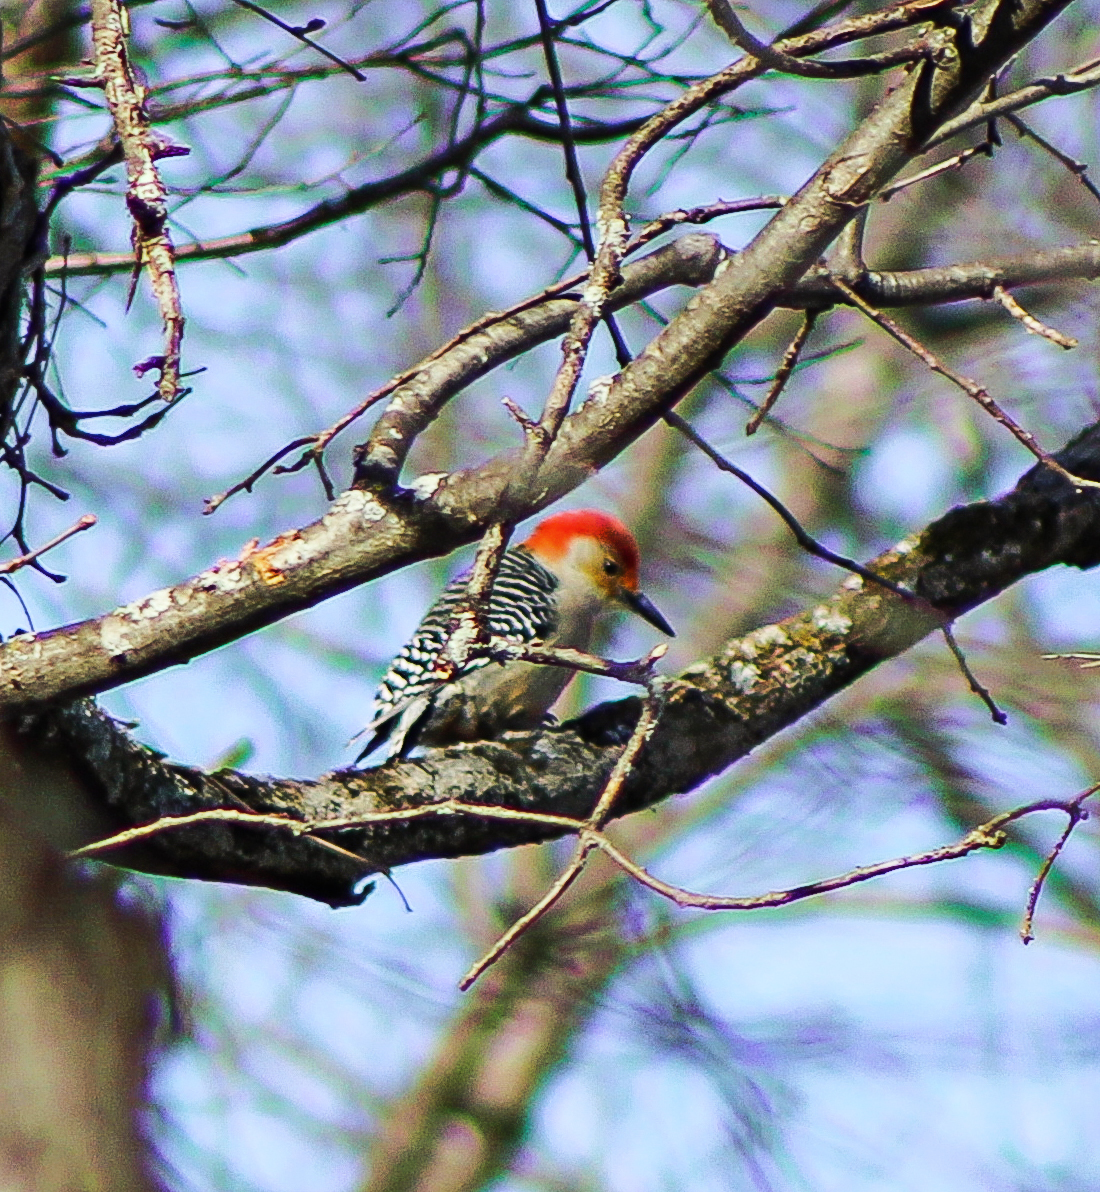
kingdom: Animalia
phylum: Chordata
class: Aves
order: Piciformes
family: Picidae
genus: Melanerpes
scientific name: Melanerpes carolinus
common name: Red-bellied woodpecker
